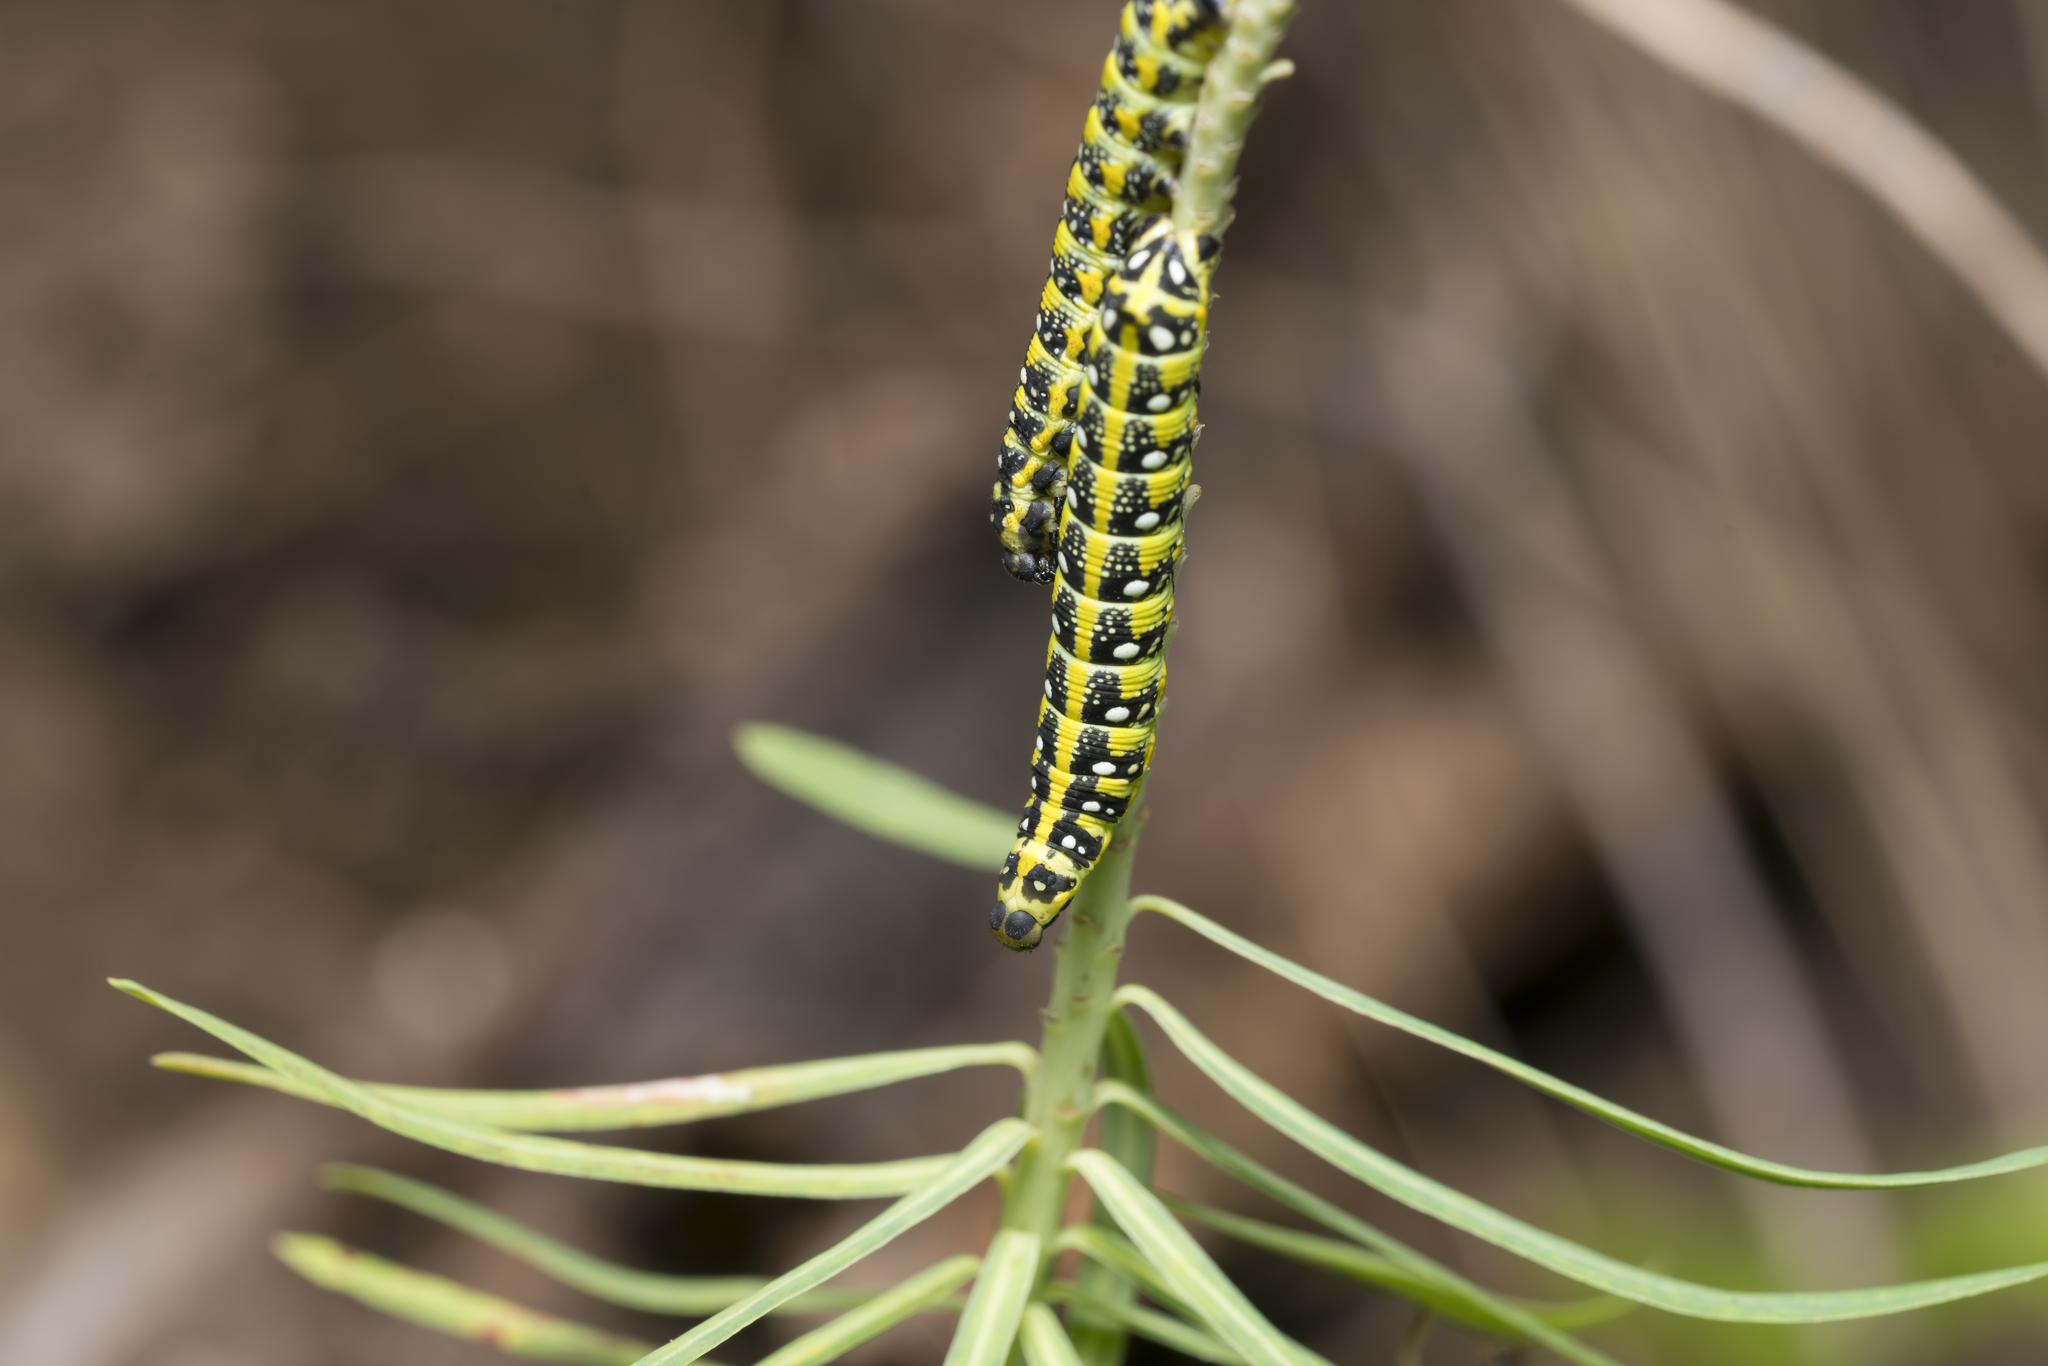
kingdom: Animalia
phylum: Arthropoda
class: Insecta
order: Lepidoptera
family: Sphingidae
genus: Hyles
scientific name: Hyles euphorbiae
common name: Spurge hawk-moth
